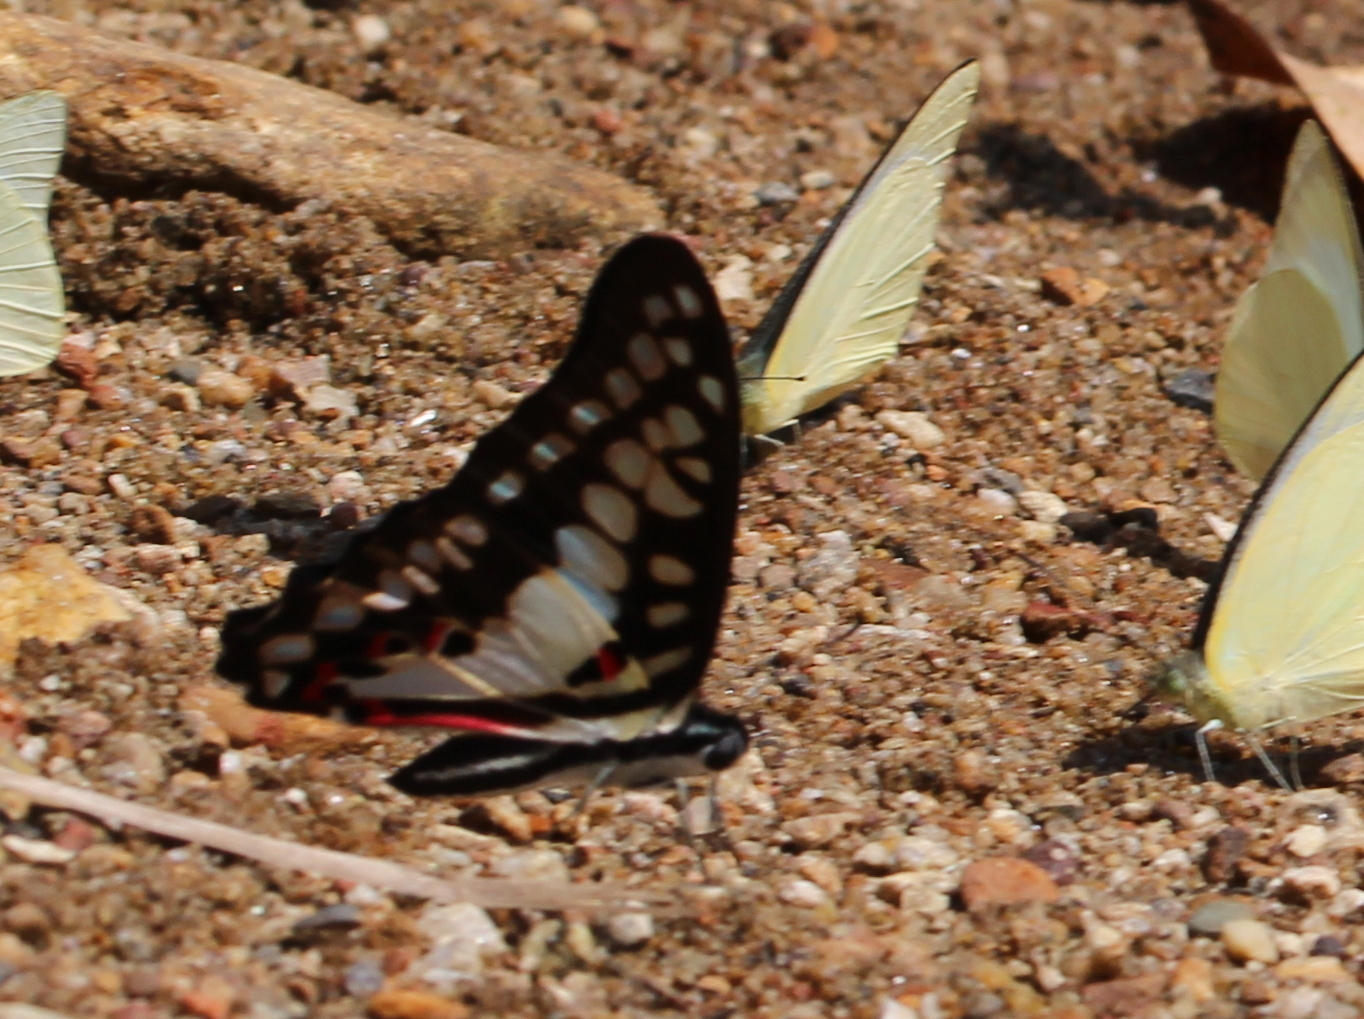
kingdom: Animalia
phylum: Arthropoda
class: Insecta
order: Lepidoptera
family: Papilionidae
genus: Graphium
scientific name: Graphium doson
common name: Common jay
